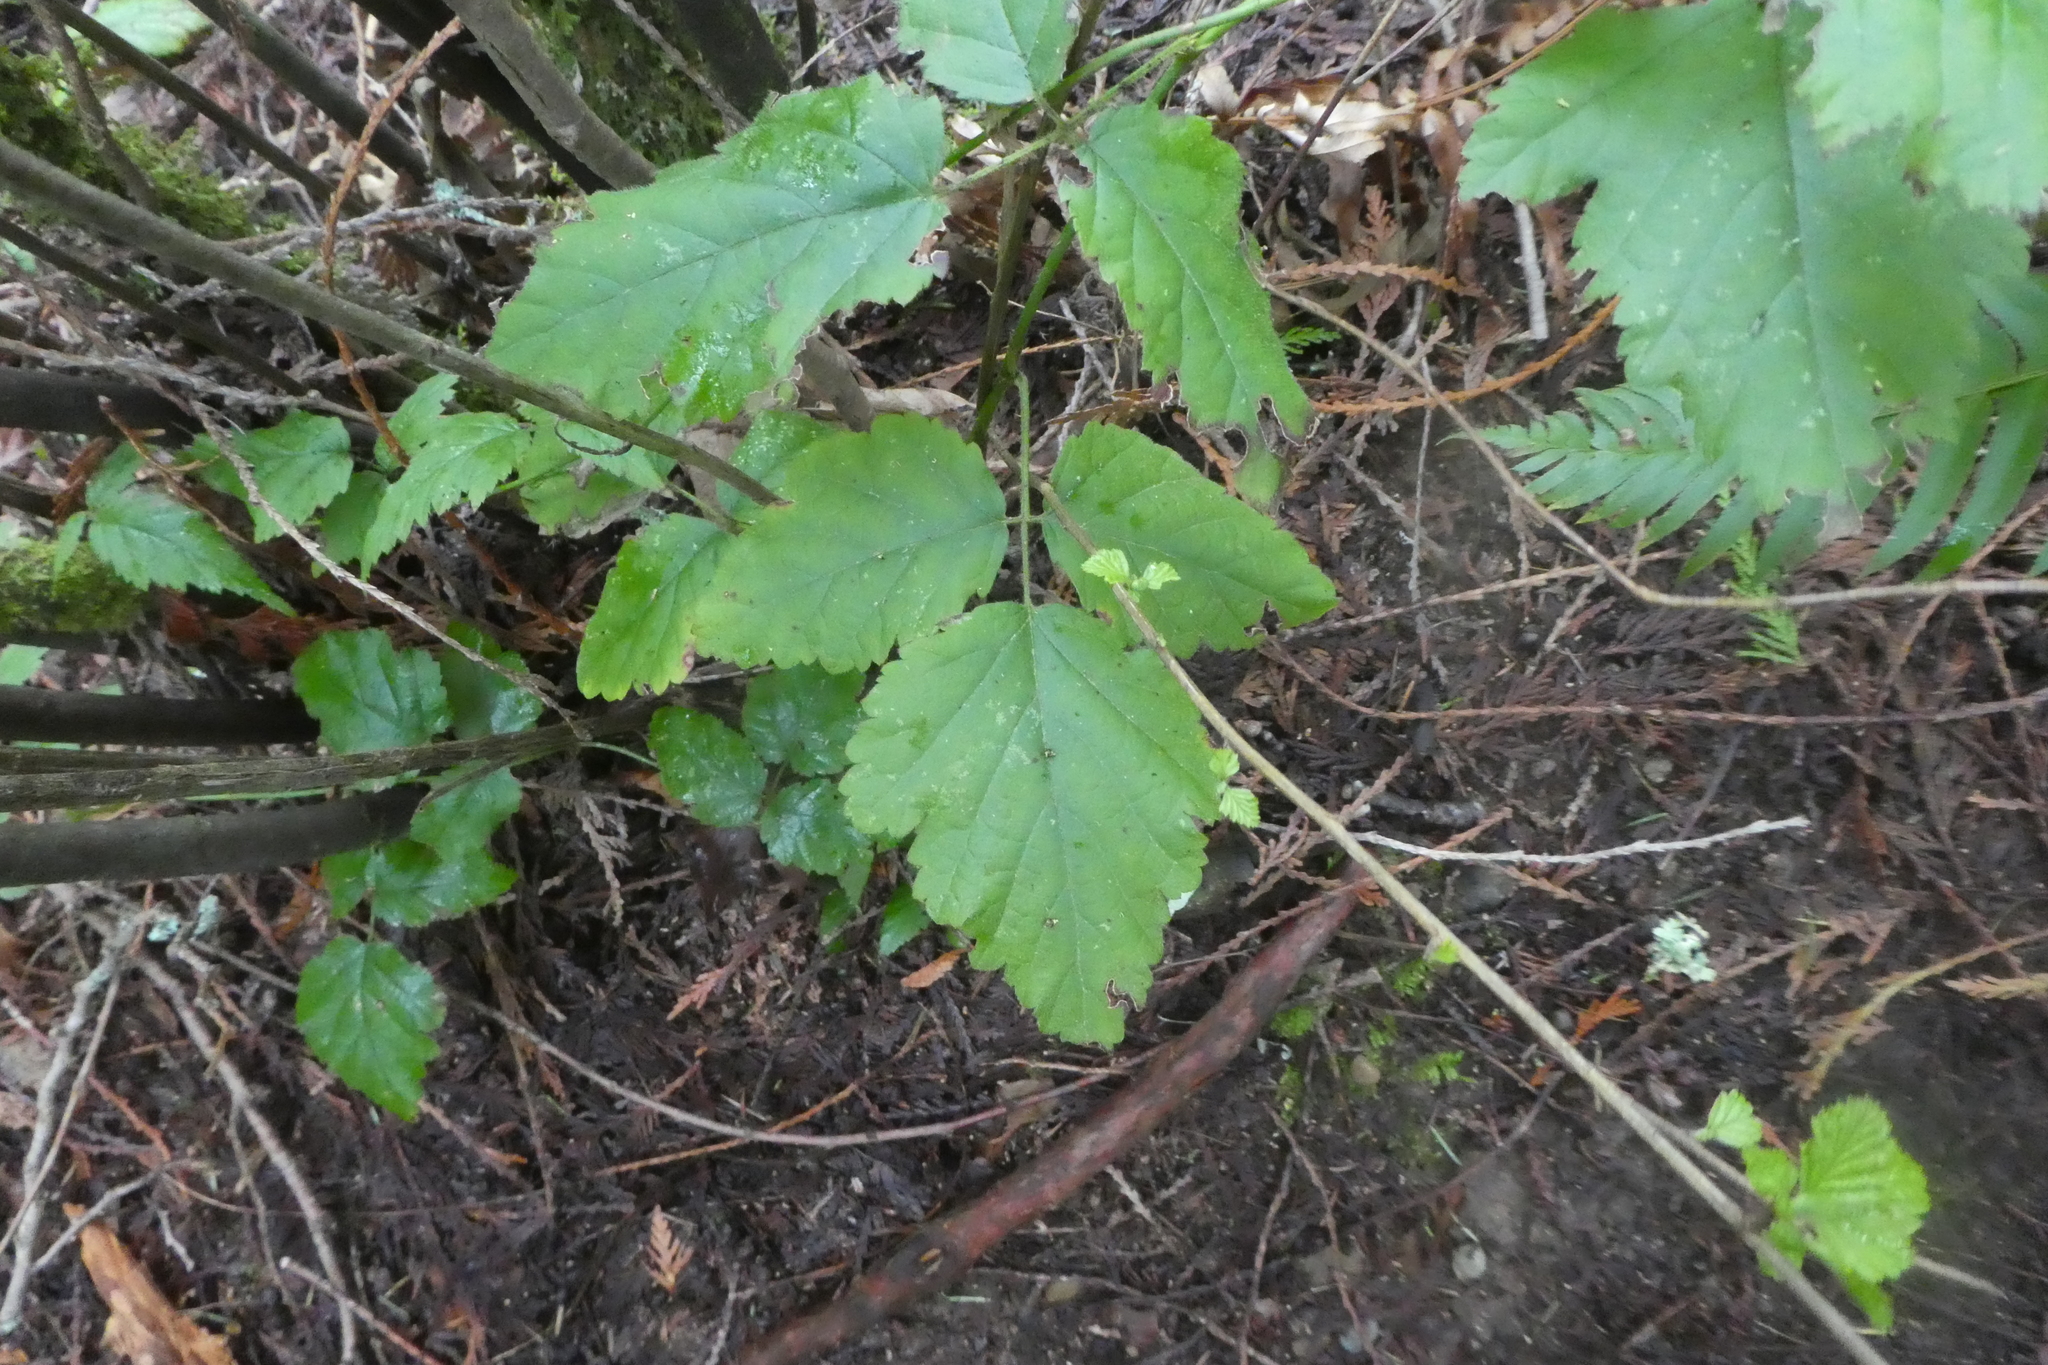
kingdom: Plantae
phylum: Tracheophyta
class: Magnoliopsida
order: Rosales
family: Rosaceae
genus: Rubus
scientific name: Rubus ursinus
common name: Pacific blackberry
